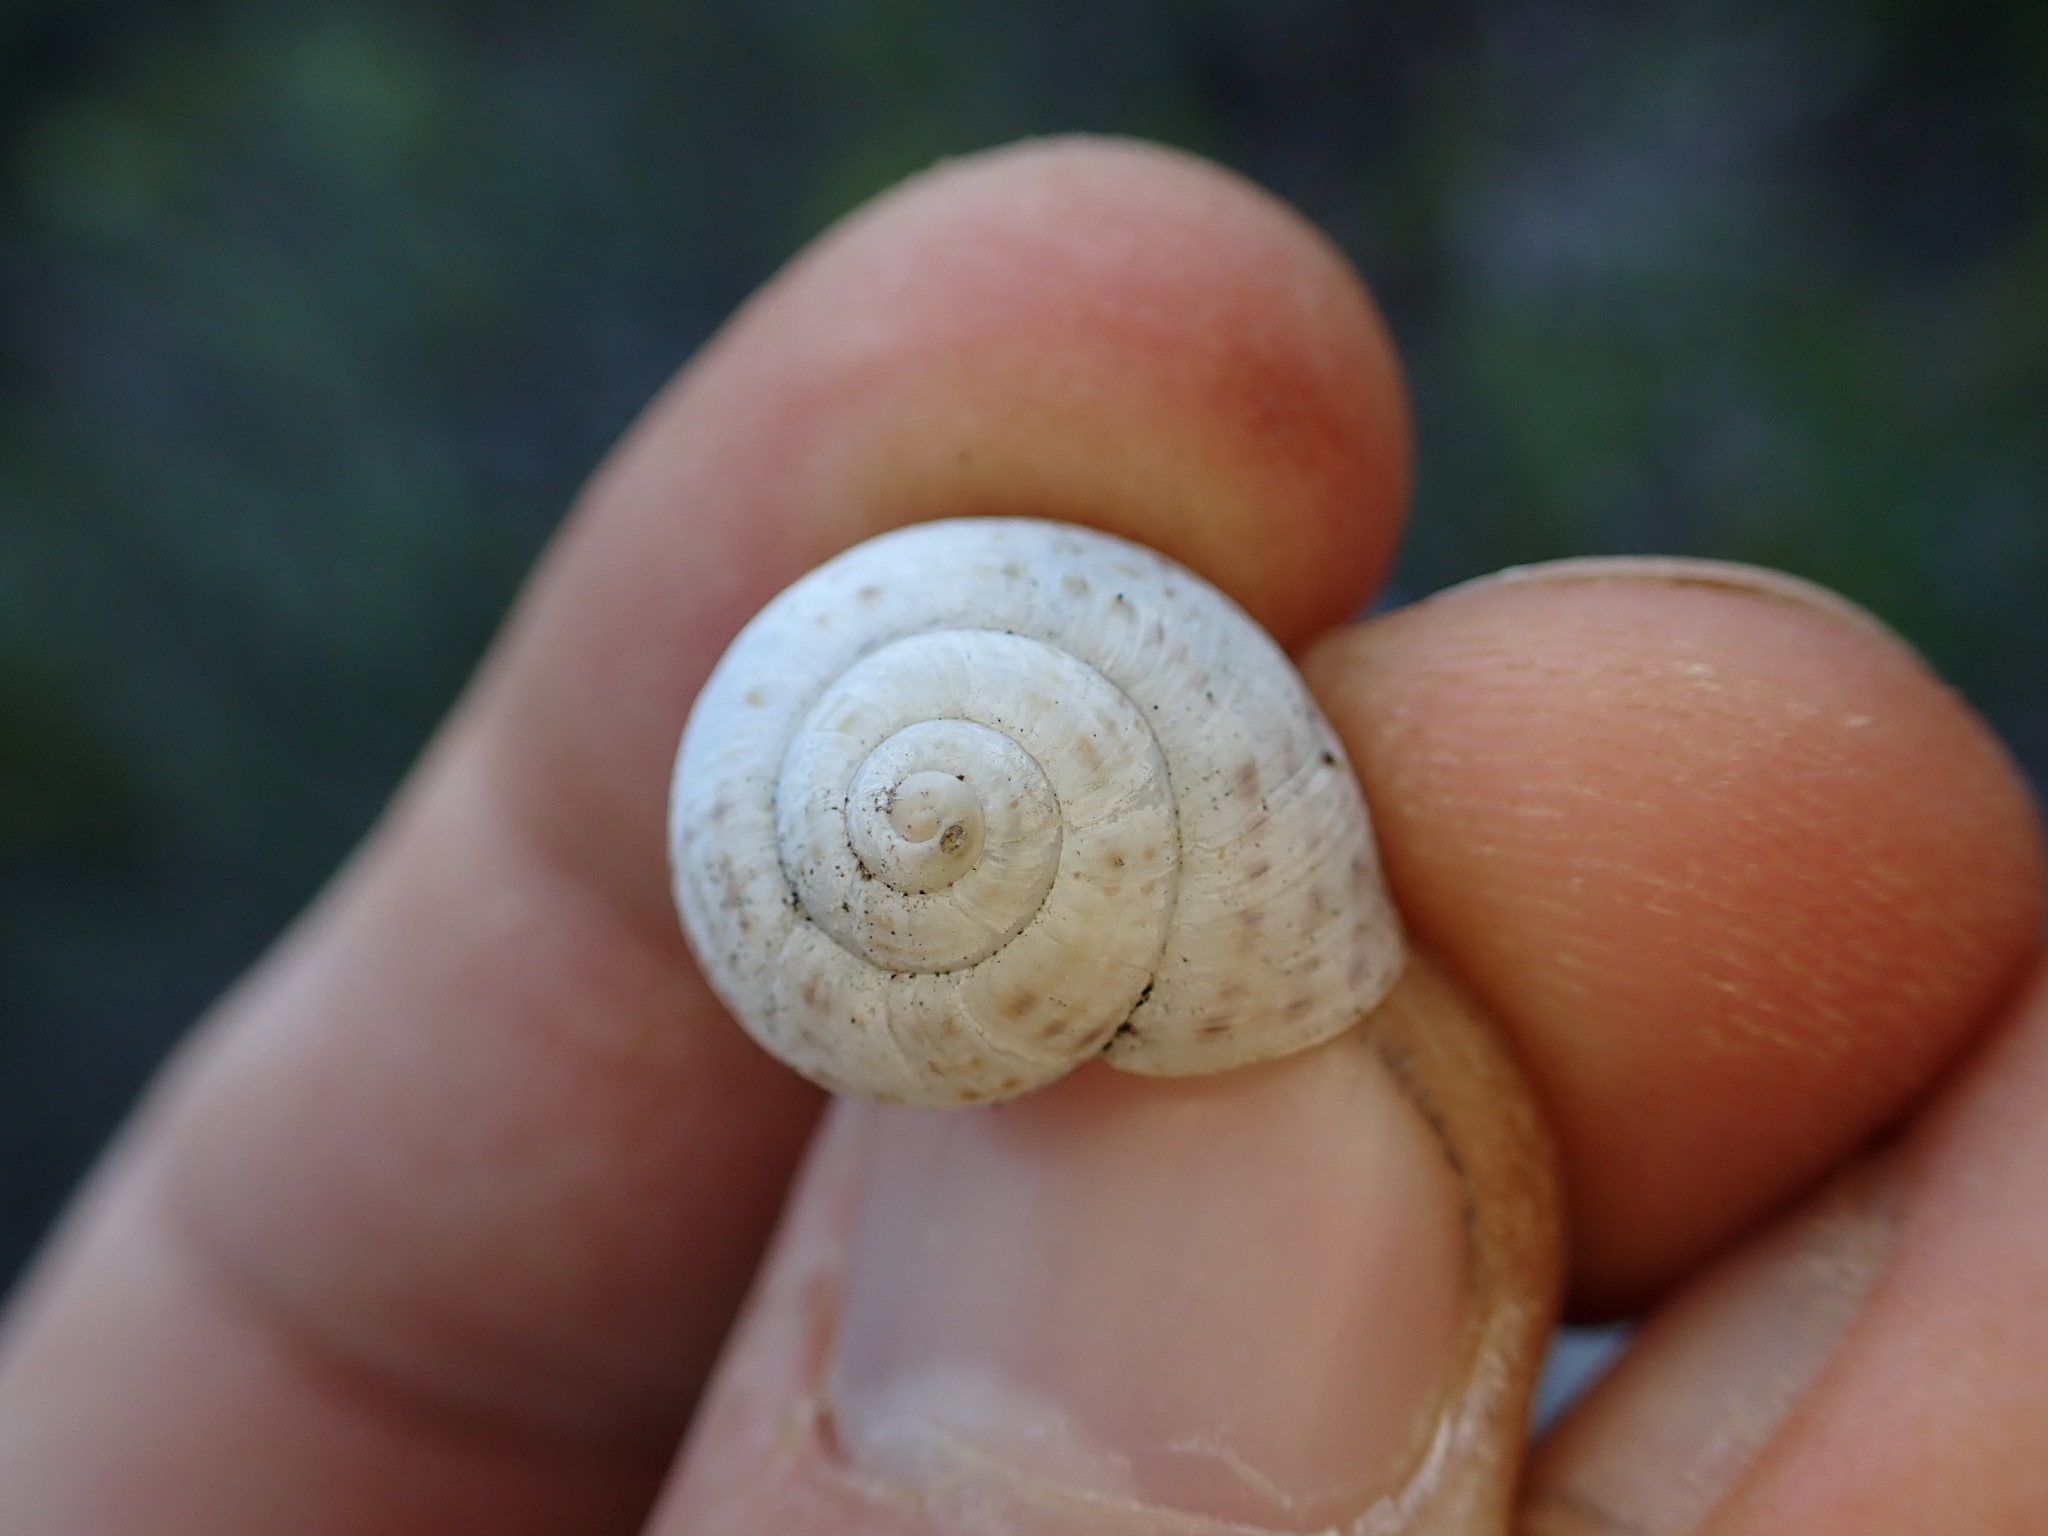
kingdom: Animalia
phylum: Mollusca
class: Gastropoda
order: Stylommatophora
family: Helicidae
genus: Pseudotachea
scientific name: Pseudotachea splendida
